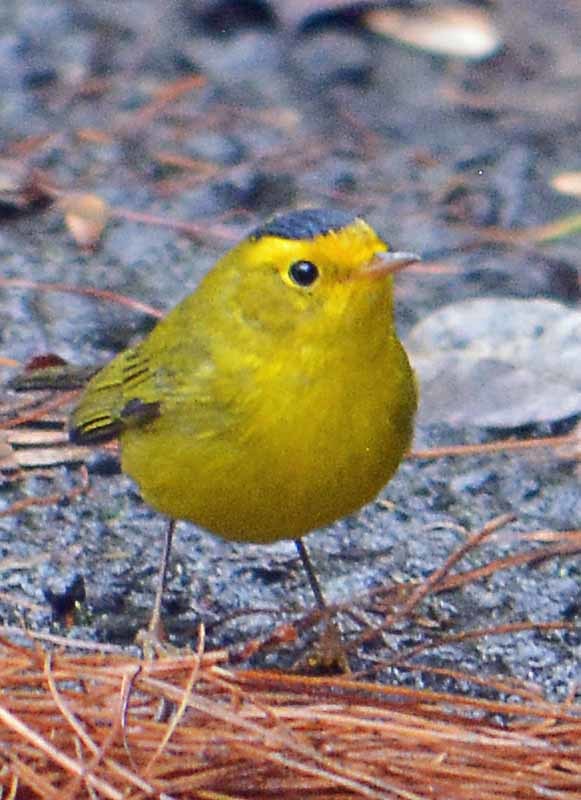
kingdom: Animalia
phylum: Chordata
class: Aves
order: Passeriformes
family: Parulidae
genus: Cardellina
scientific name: Cardellina pusilla
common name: Wilson's warbler
